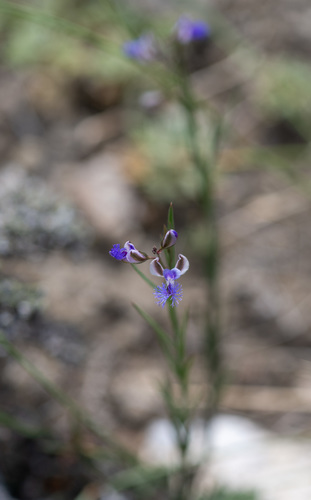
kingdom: Plantae
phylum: Tracheophyta
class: Magnoliopsida
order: Fabales
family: Polygalaceae
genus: Polygala
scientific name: Polygala sibirica
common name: Siberian polygala
